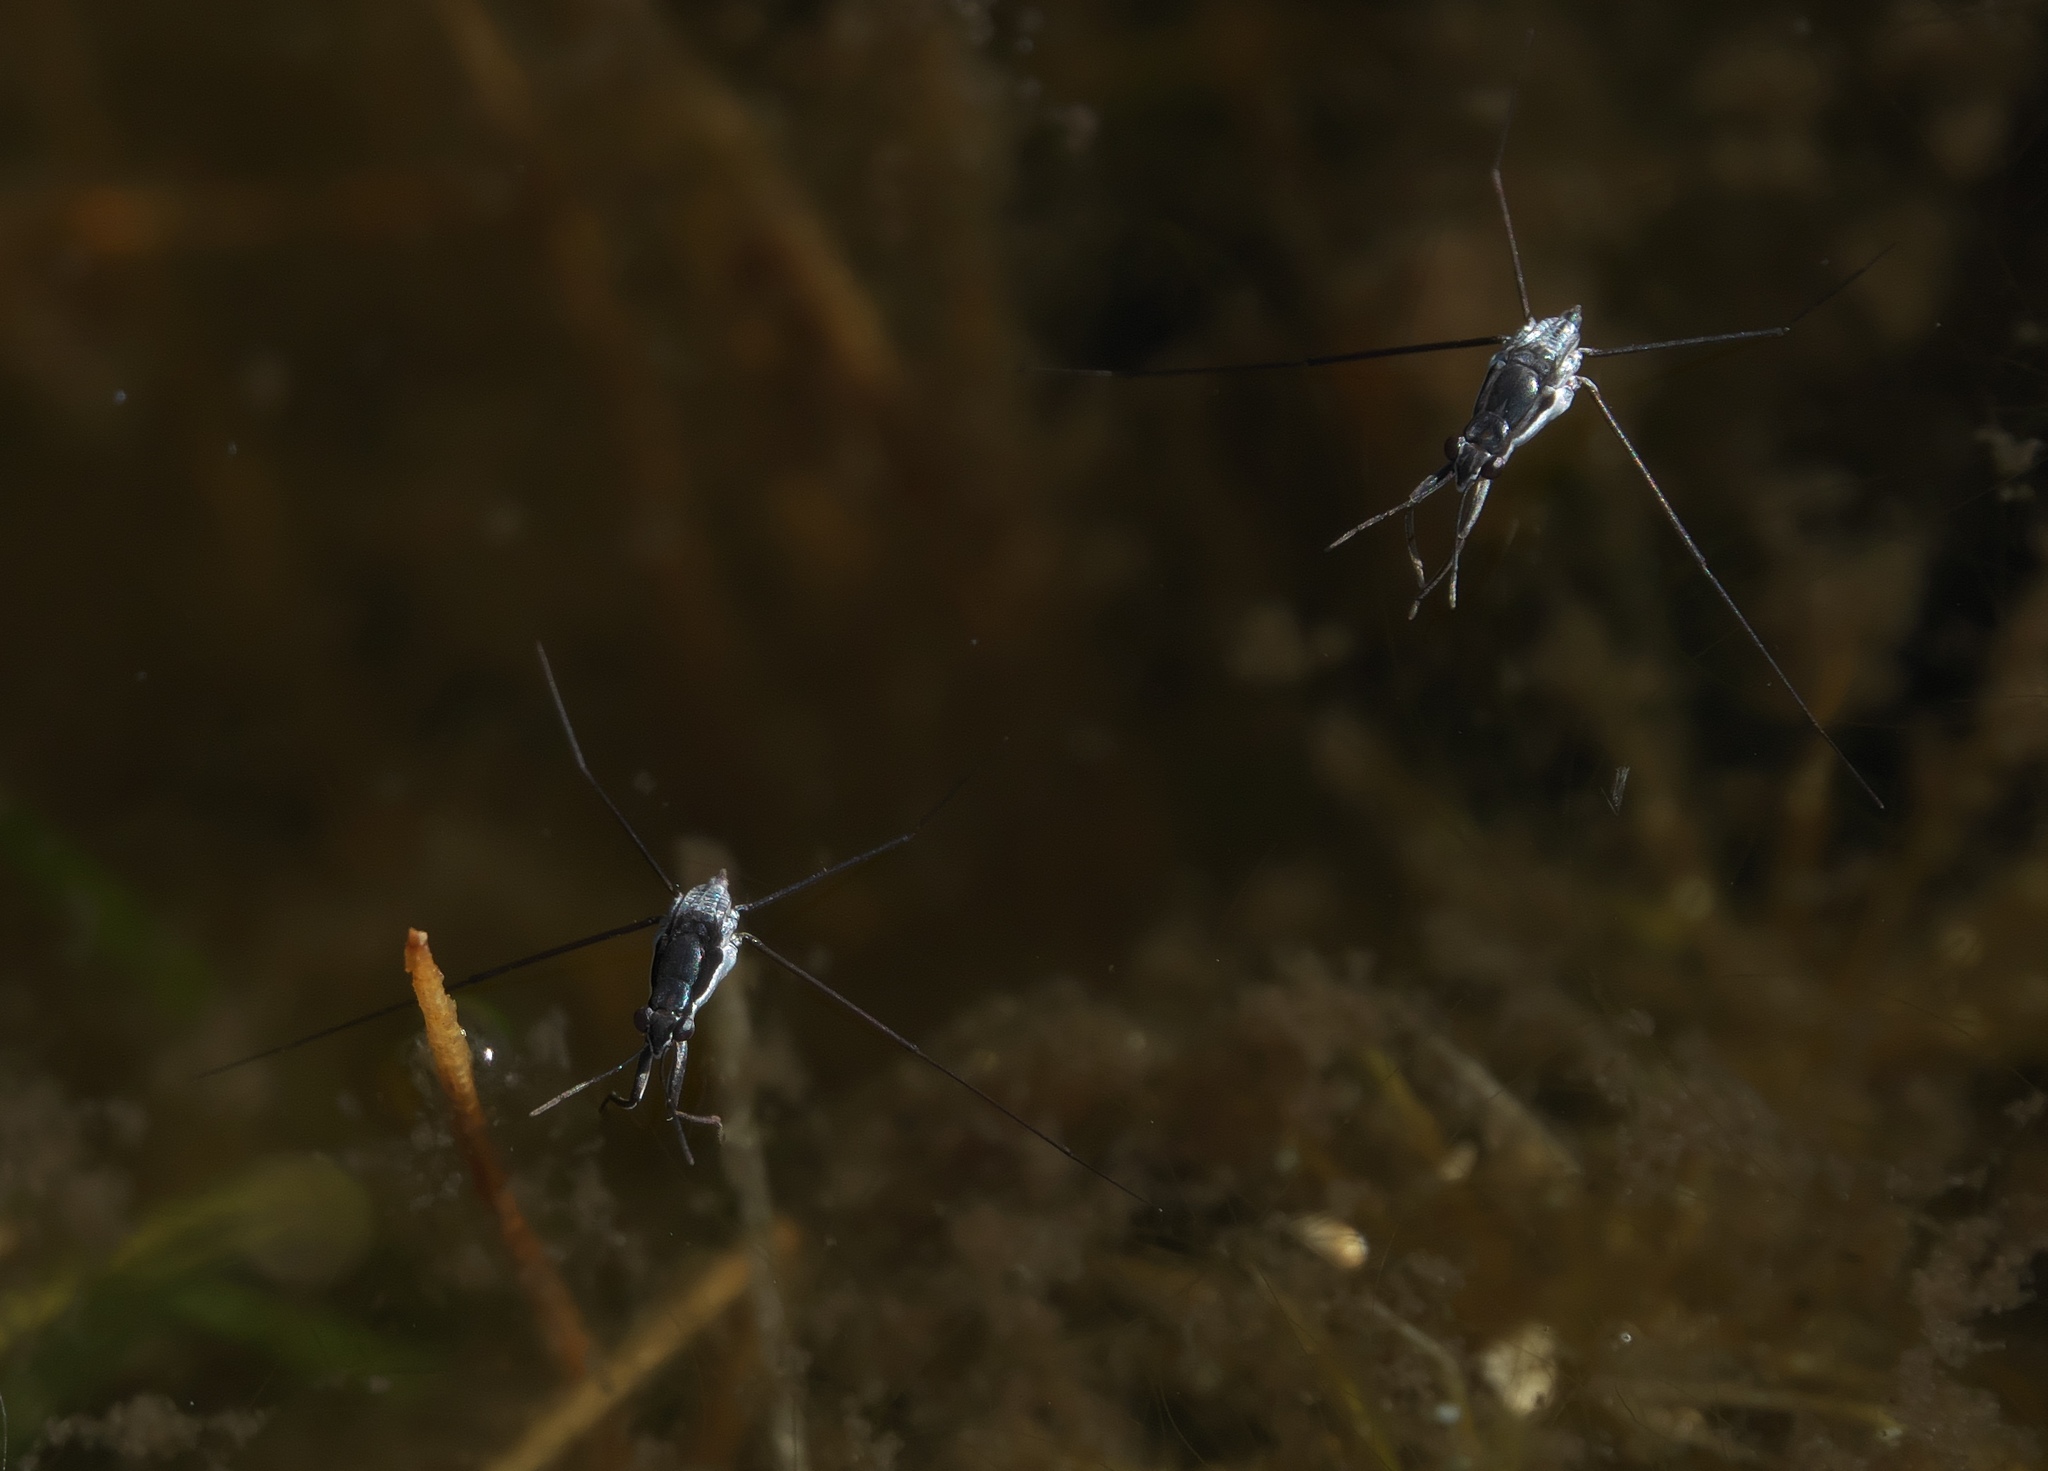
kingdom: Animalia
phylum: Arthropoda
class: Insecta
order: Hemiptera
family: Gerridae
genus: Neogerris
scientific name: Neogerris hesione
